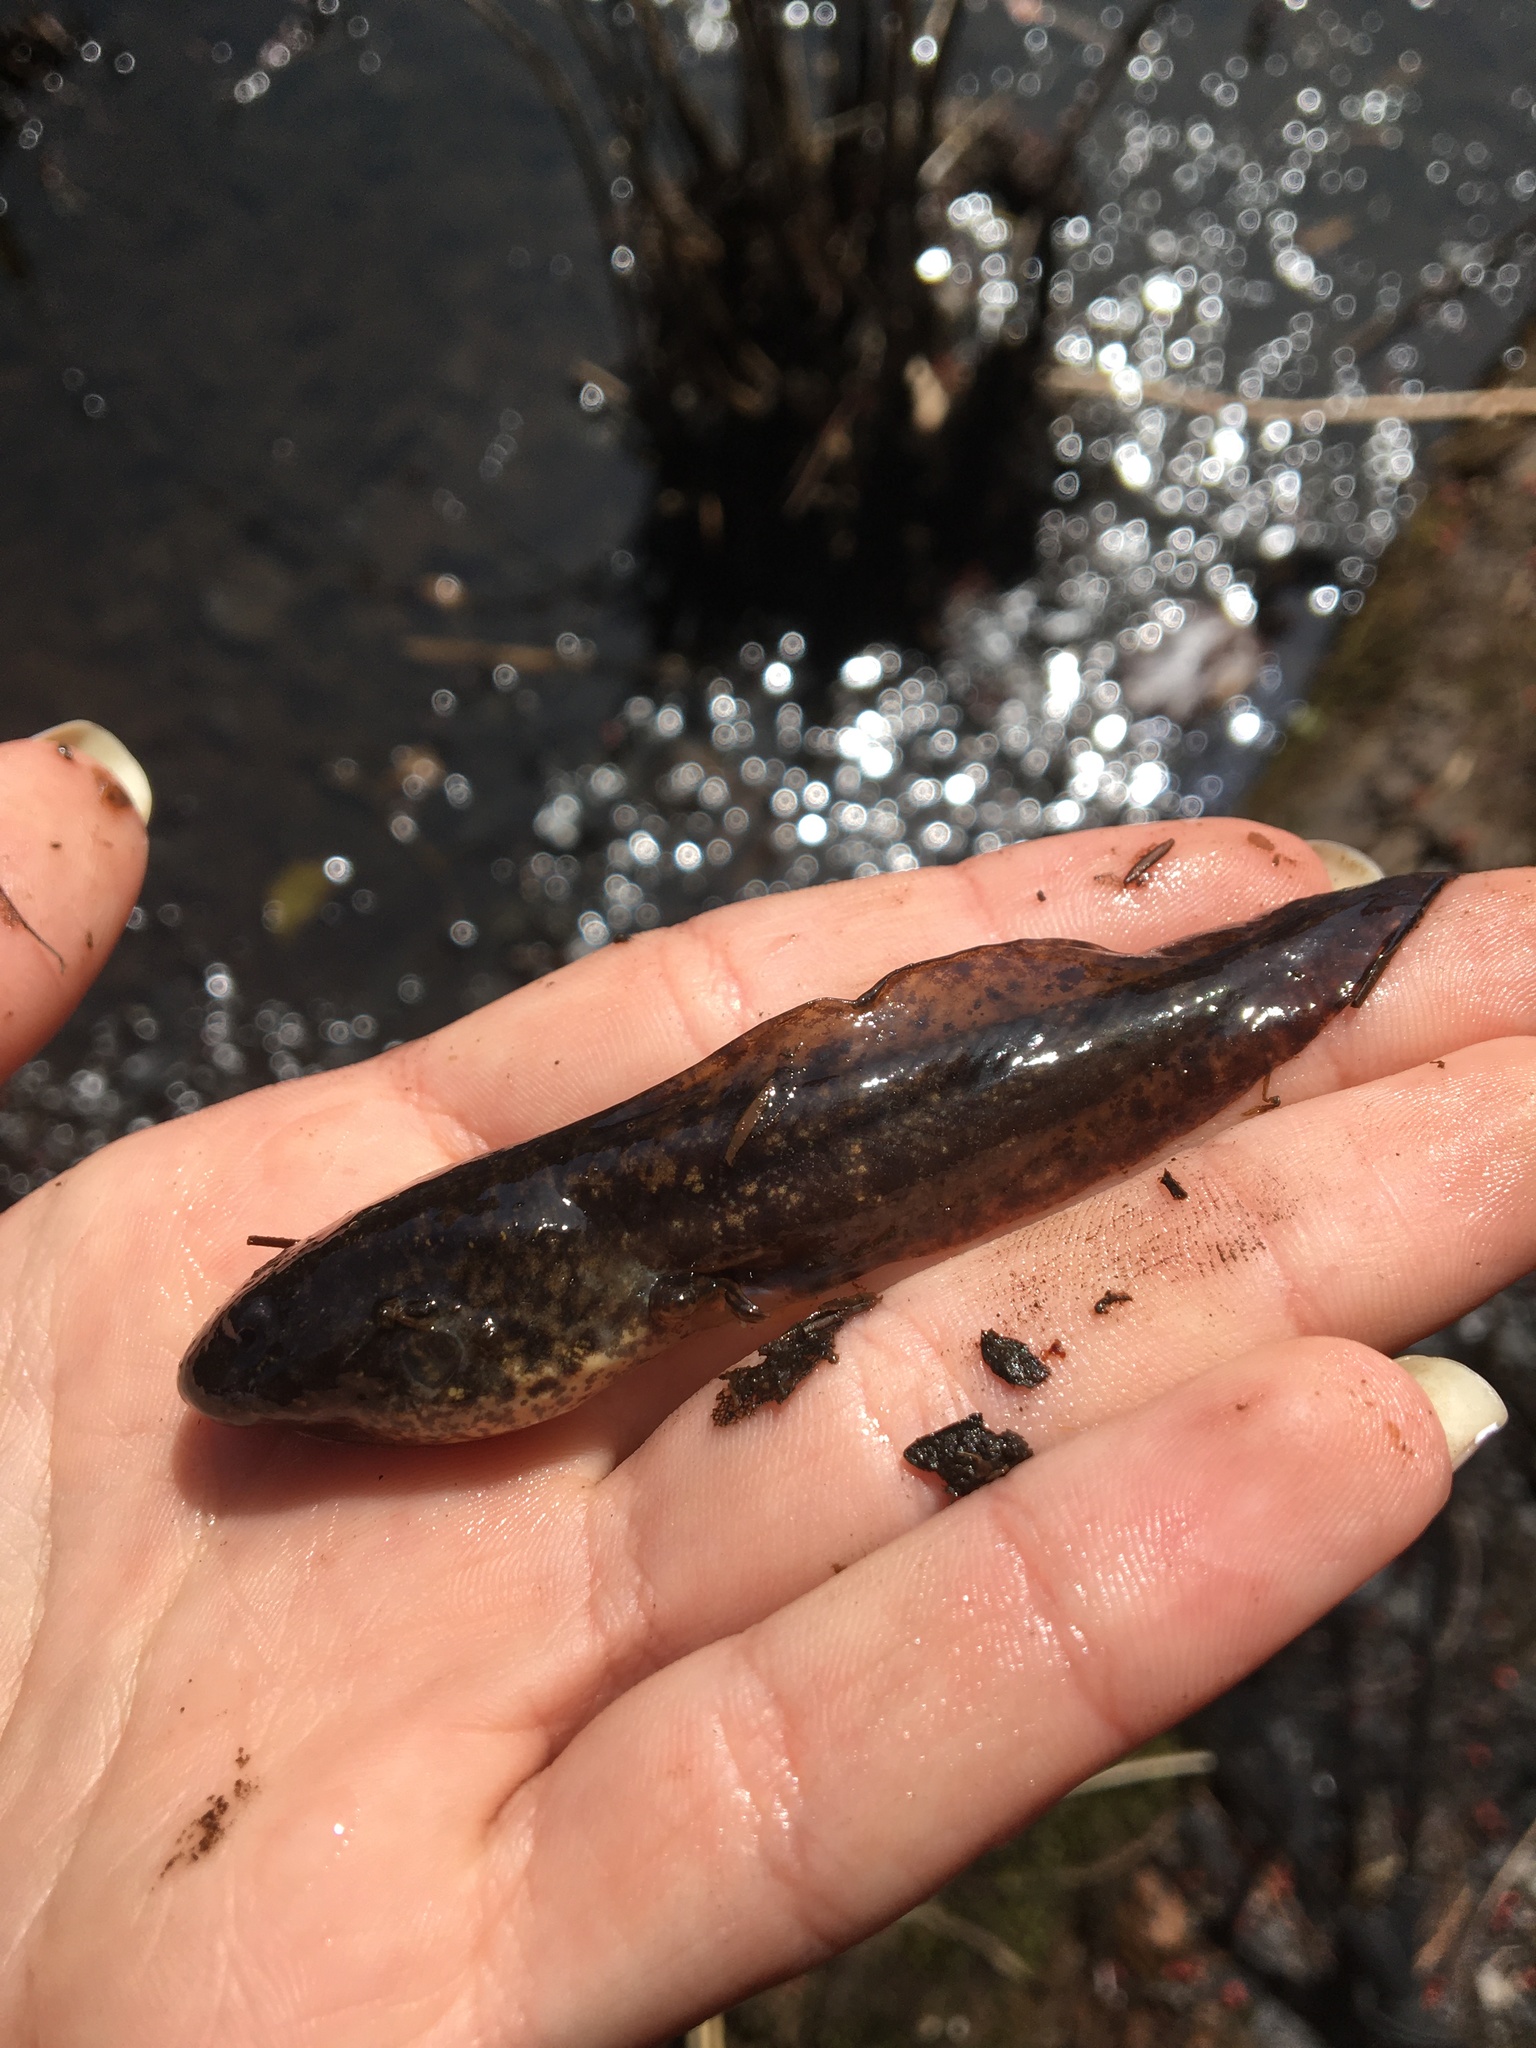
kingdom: Animalia
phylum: Chordata
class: Amphibia
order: Anura
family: Ranidae
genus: Lithobates
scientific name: Lithobates catesbeianus
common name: American bullfrog
